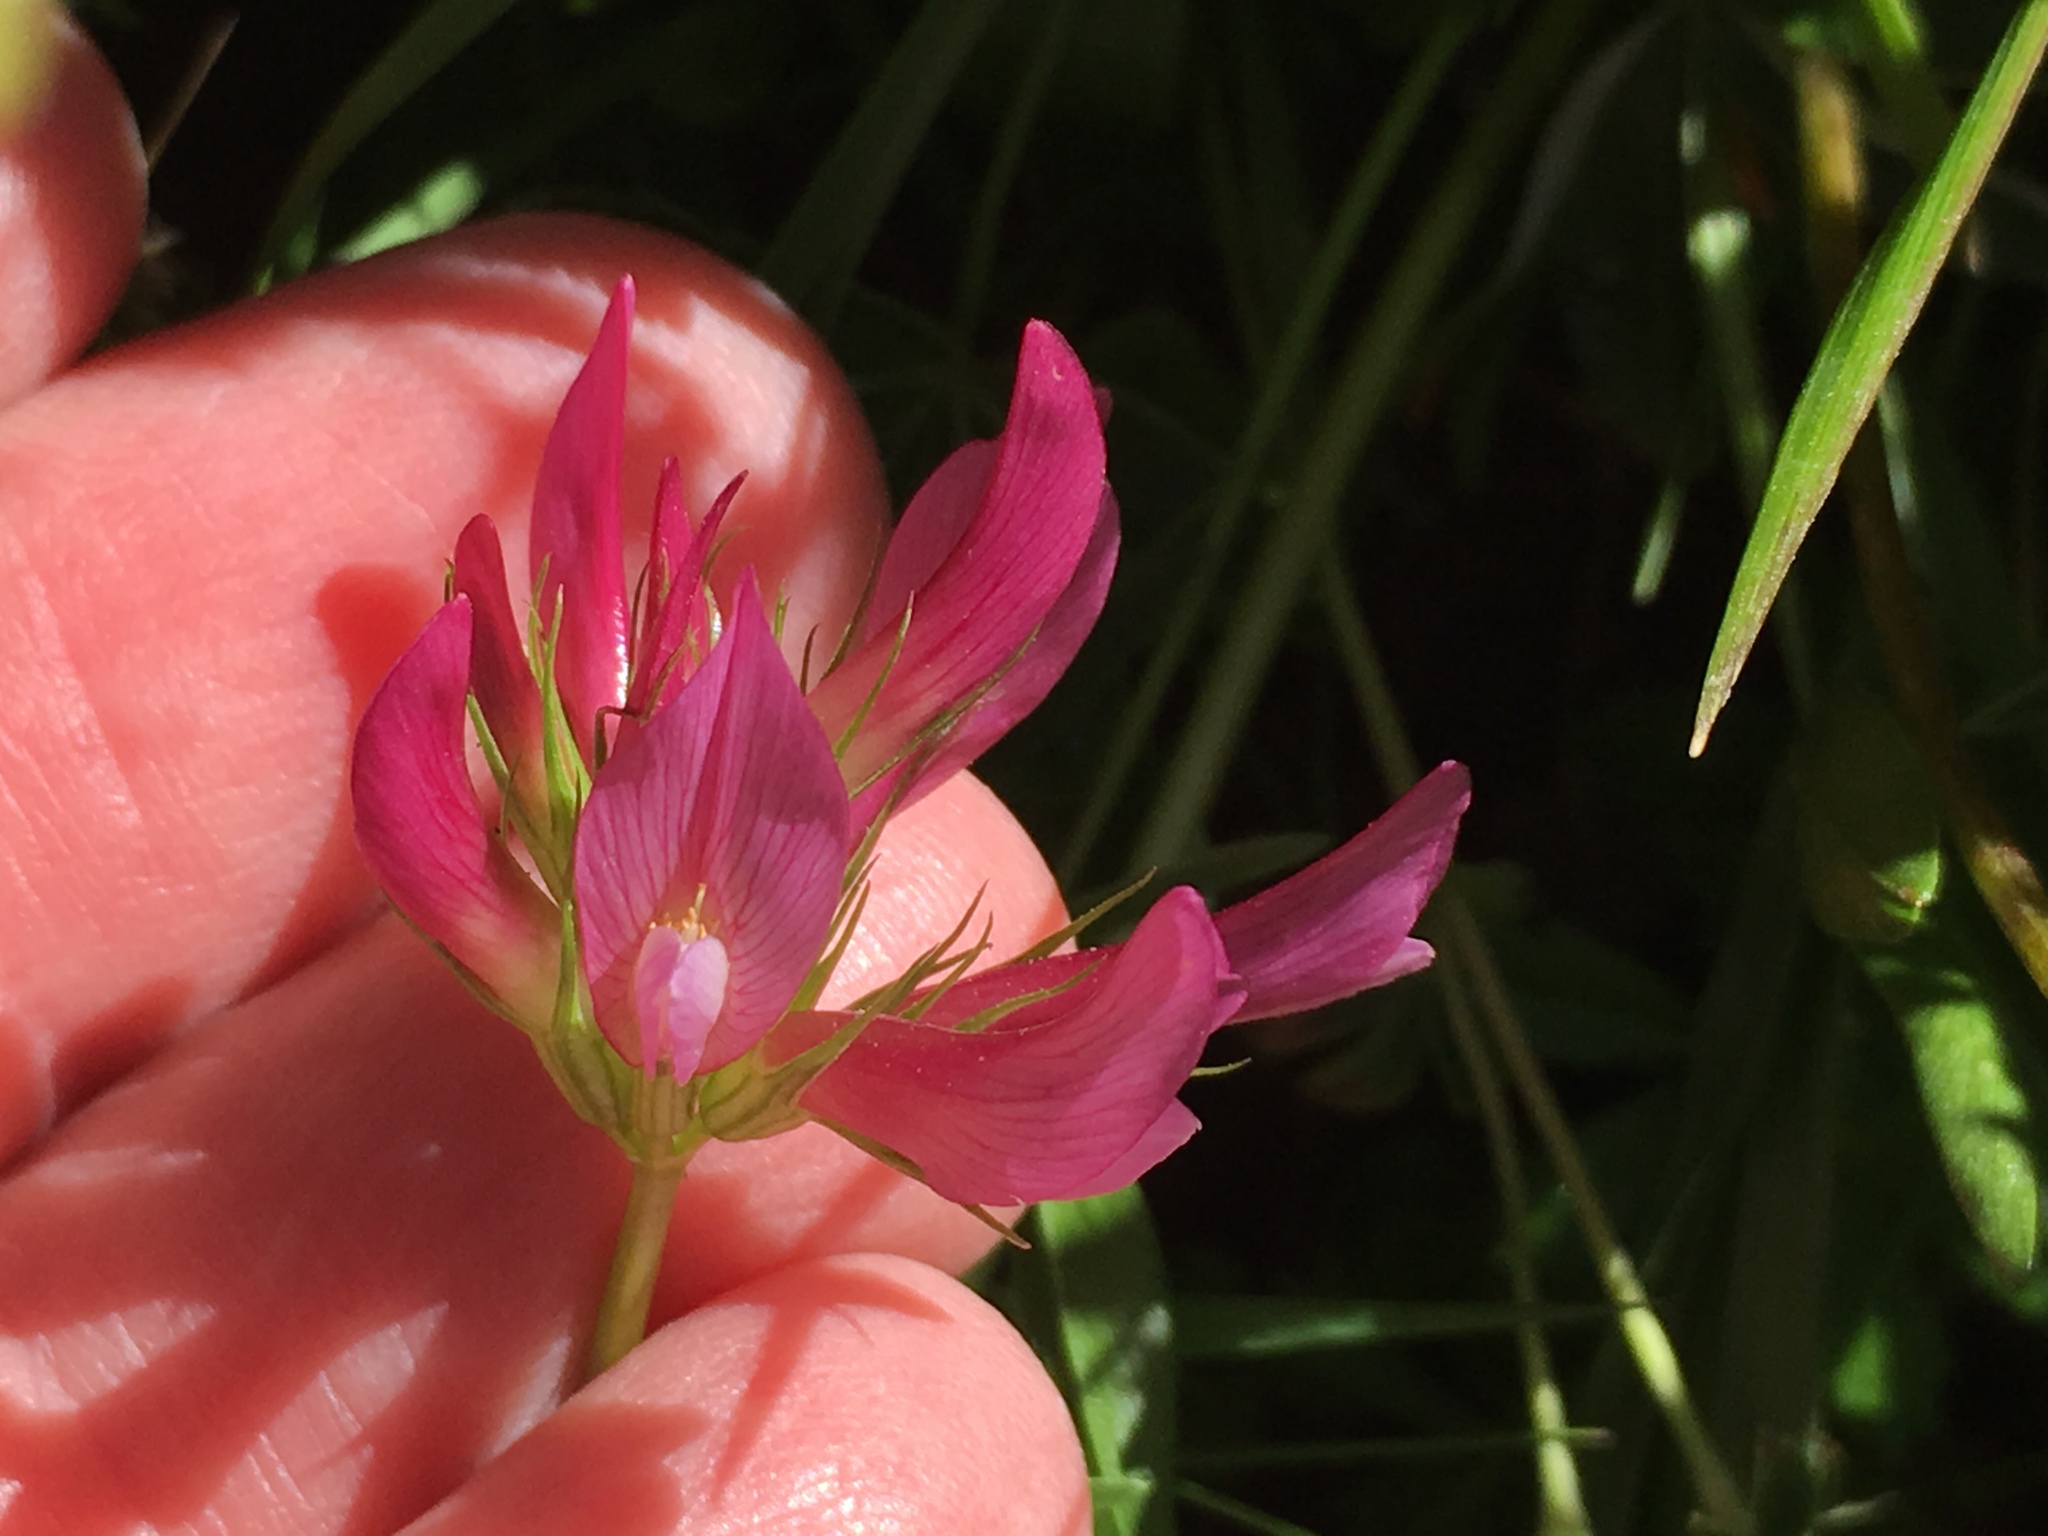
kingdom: Plantae
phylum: Tracheophyta
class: Magnoliopsida
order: Fabales
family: Fabaceae
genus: Trifolium
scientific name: Trifolium alpinum
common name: Alpine clover
